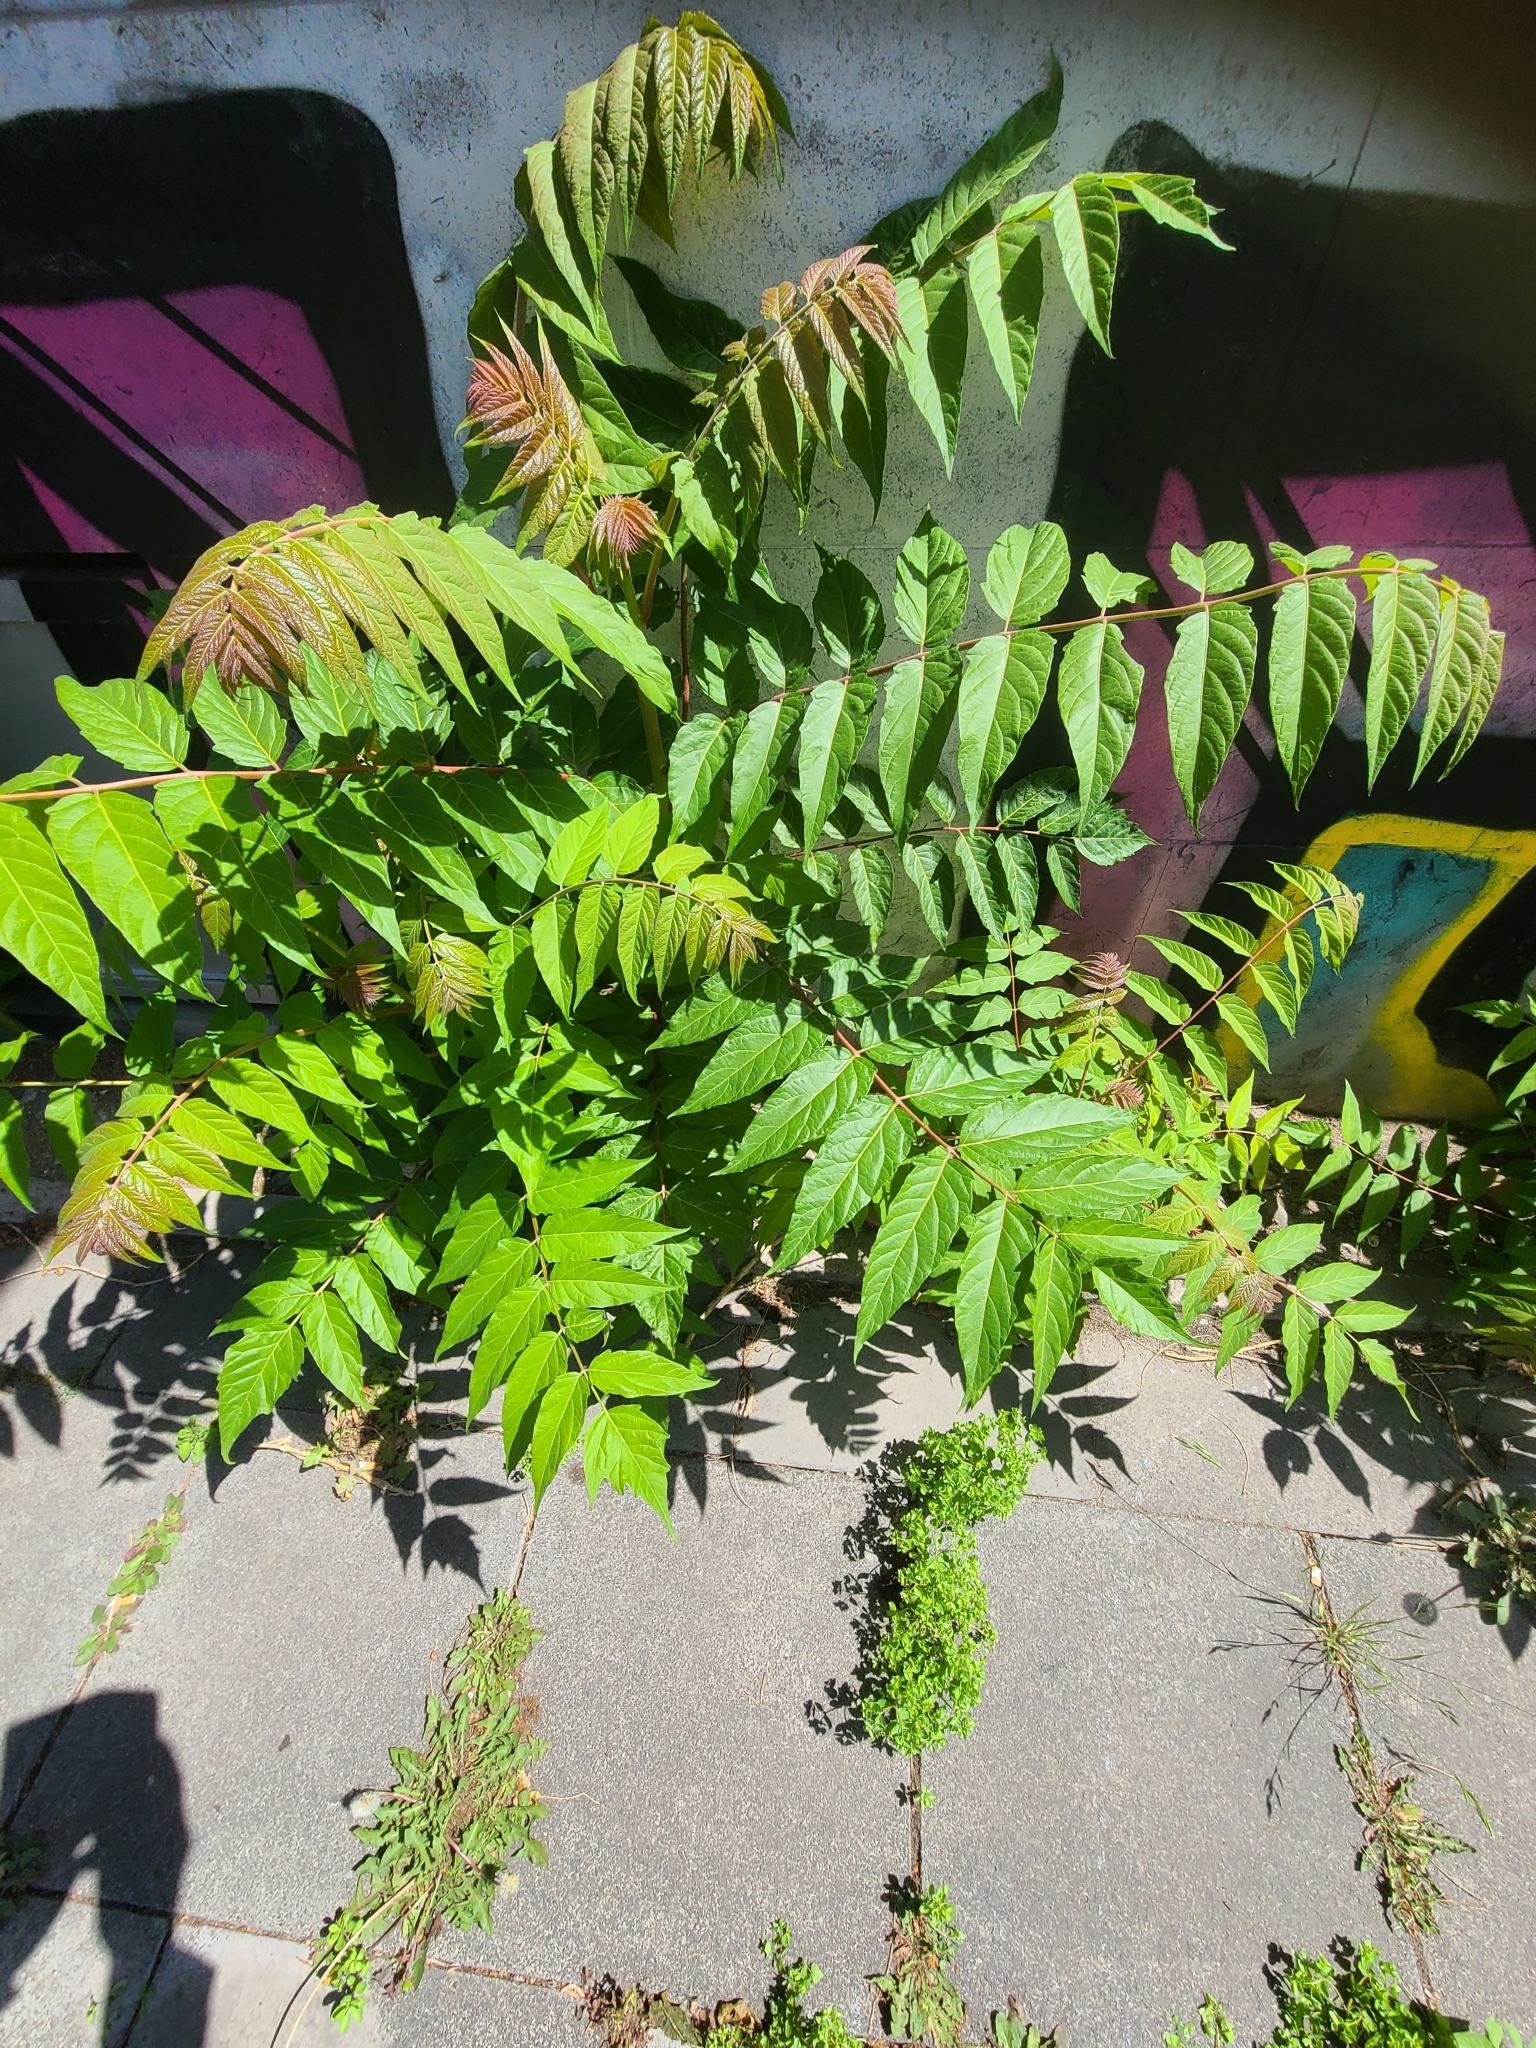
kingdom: Plantae
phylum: Tracheophyta
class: Magnoliopsida
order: Sapindales
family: Simaroubaceae
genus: Ailanthus
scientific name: Ailanthus altissima
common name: Tree-of-heaven
